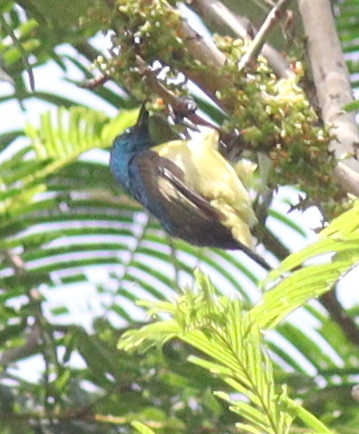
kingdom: Animalia
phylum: Chordata
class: Aves
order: Passeriformes
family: Nectariniidae
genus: Hedydipna
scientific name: Hedydipna collaris
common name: Collared sunbird
